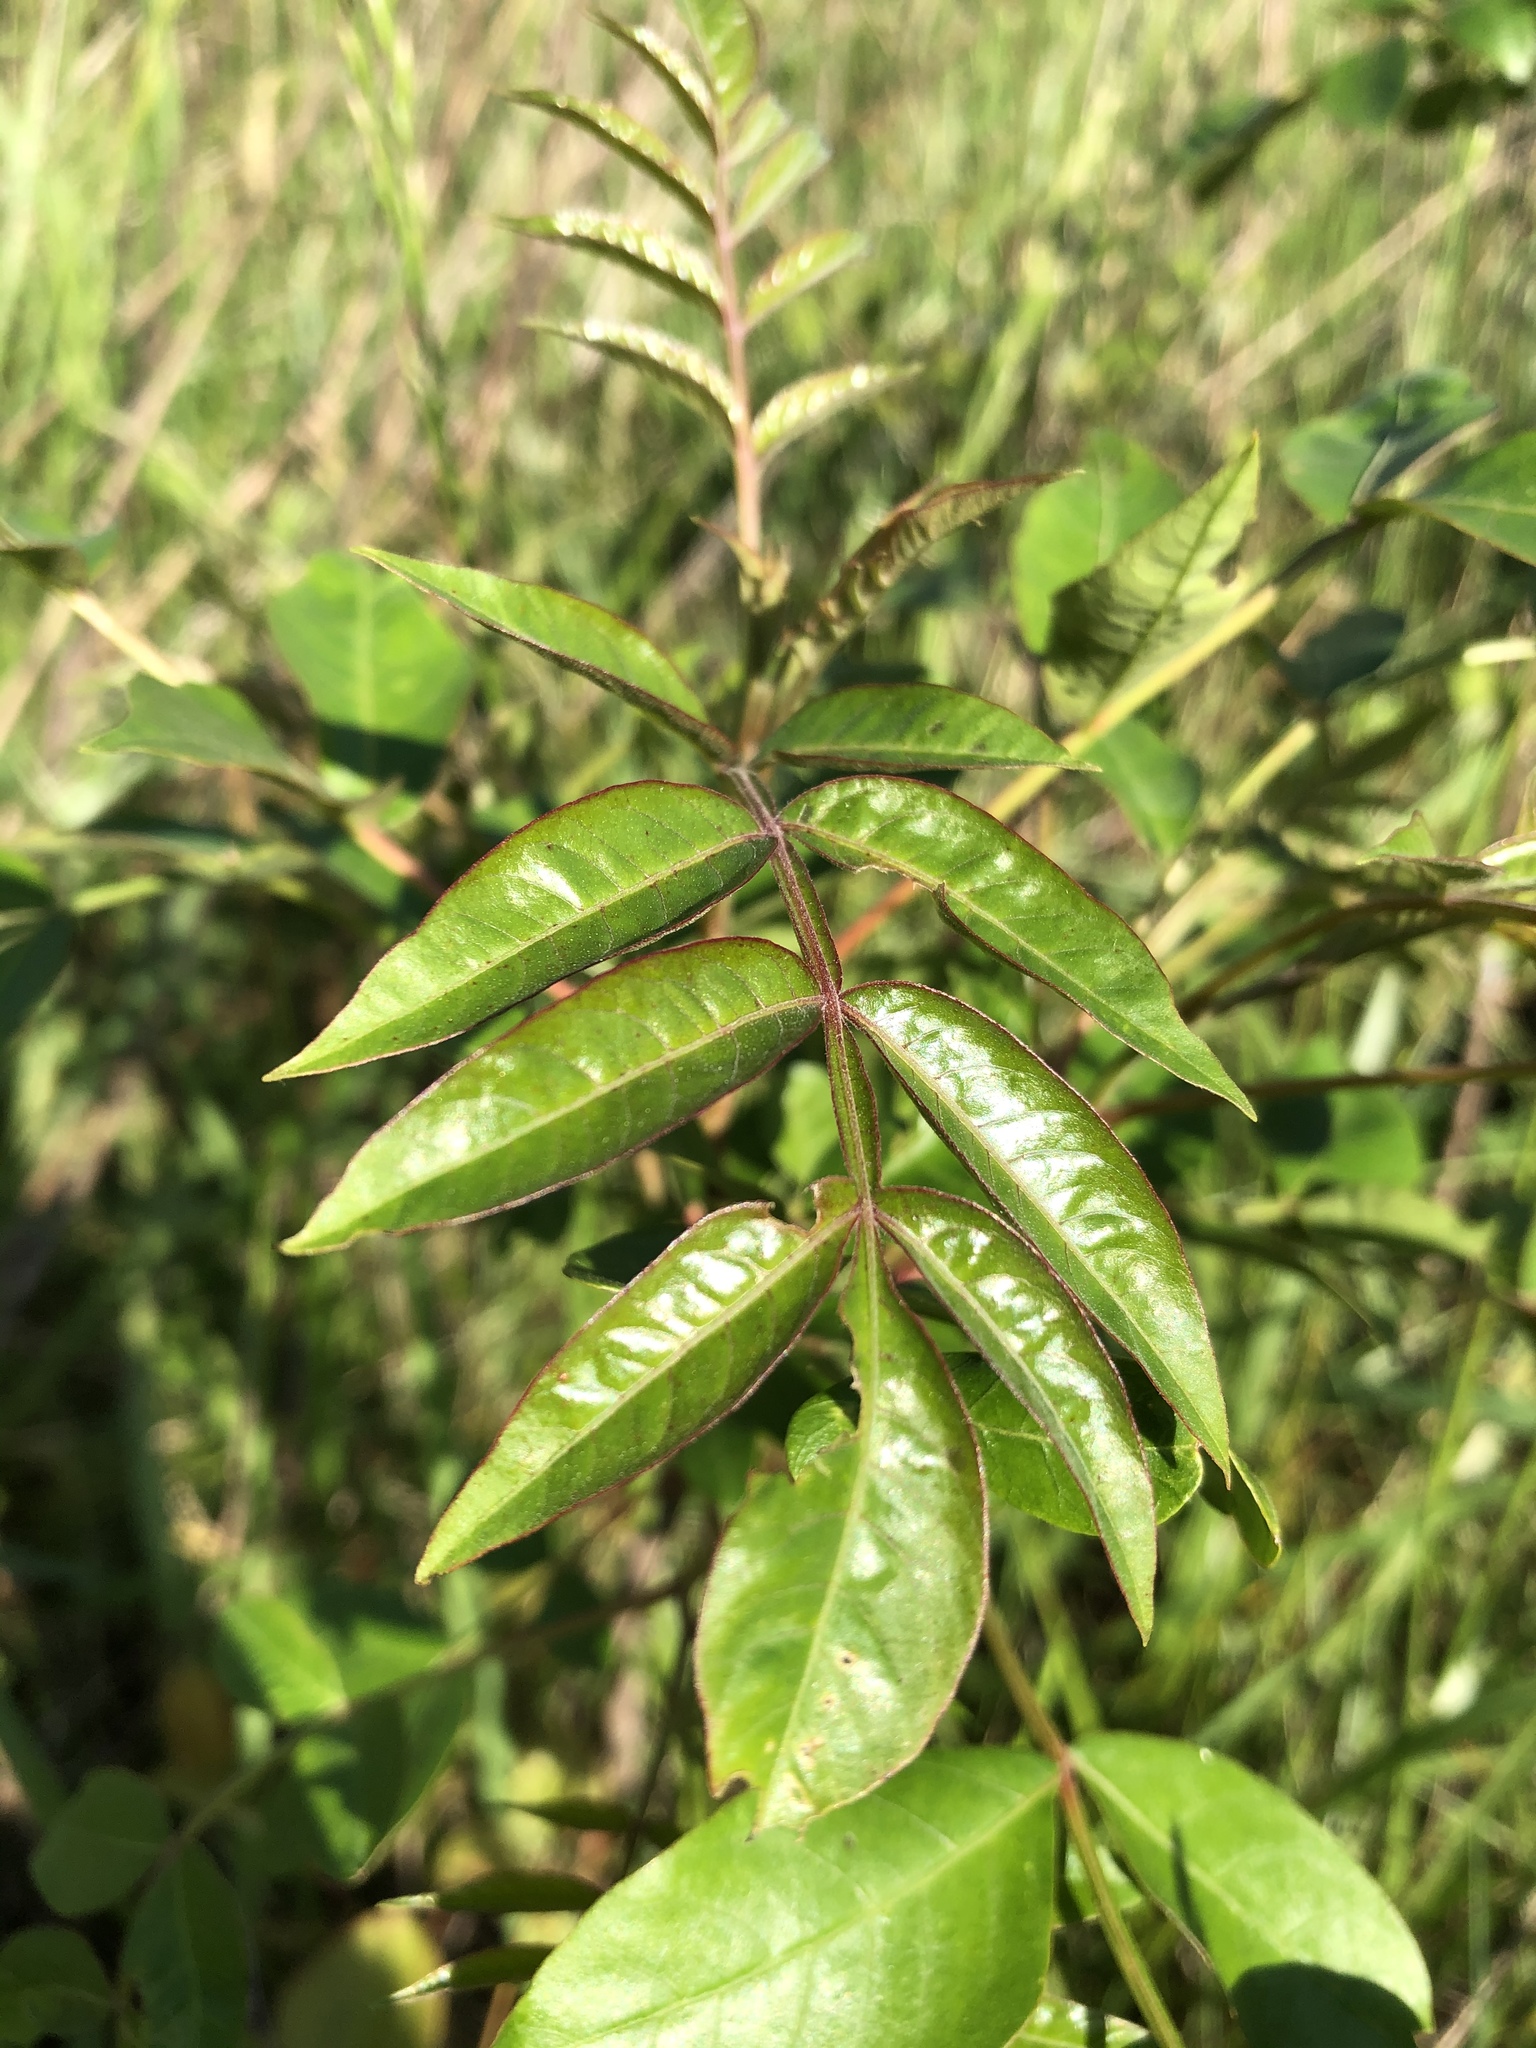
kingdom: Plantae
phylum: Tracheophyta
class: Magnoliopsida
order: Sapindales
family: Anacardiaceae
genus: Rhus
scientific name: Rhus copallina
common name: Shining sumac
